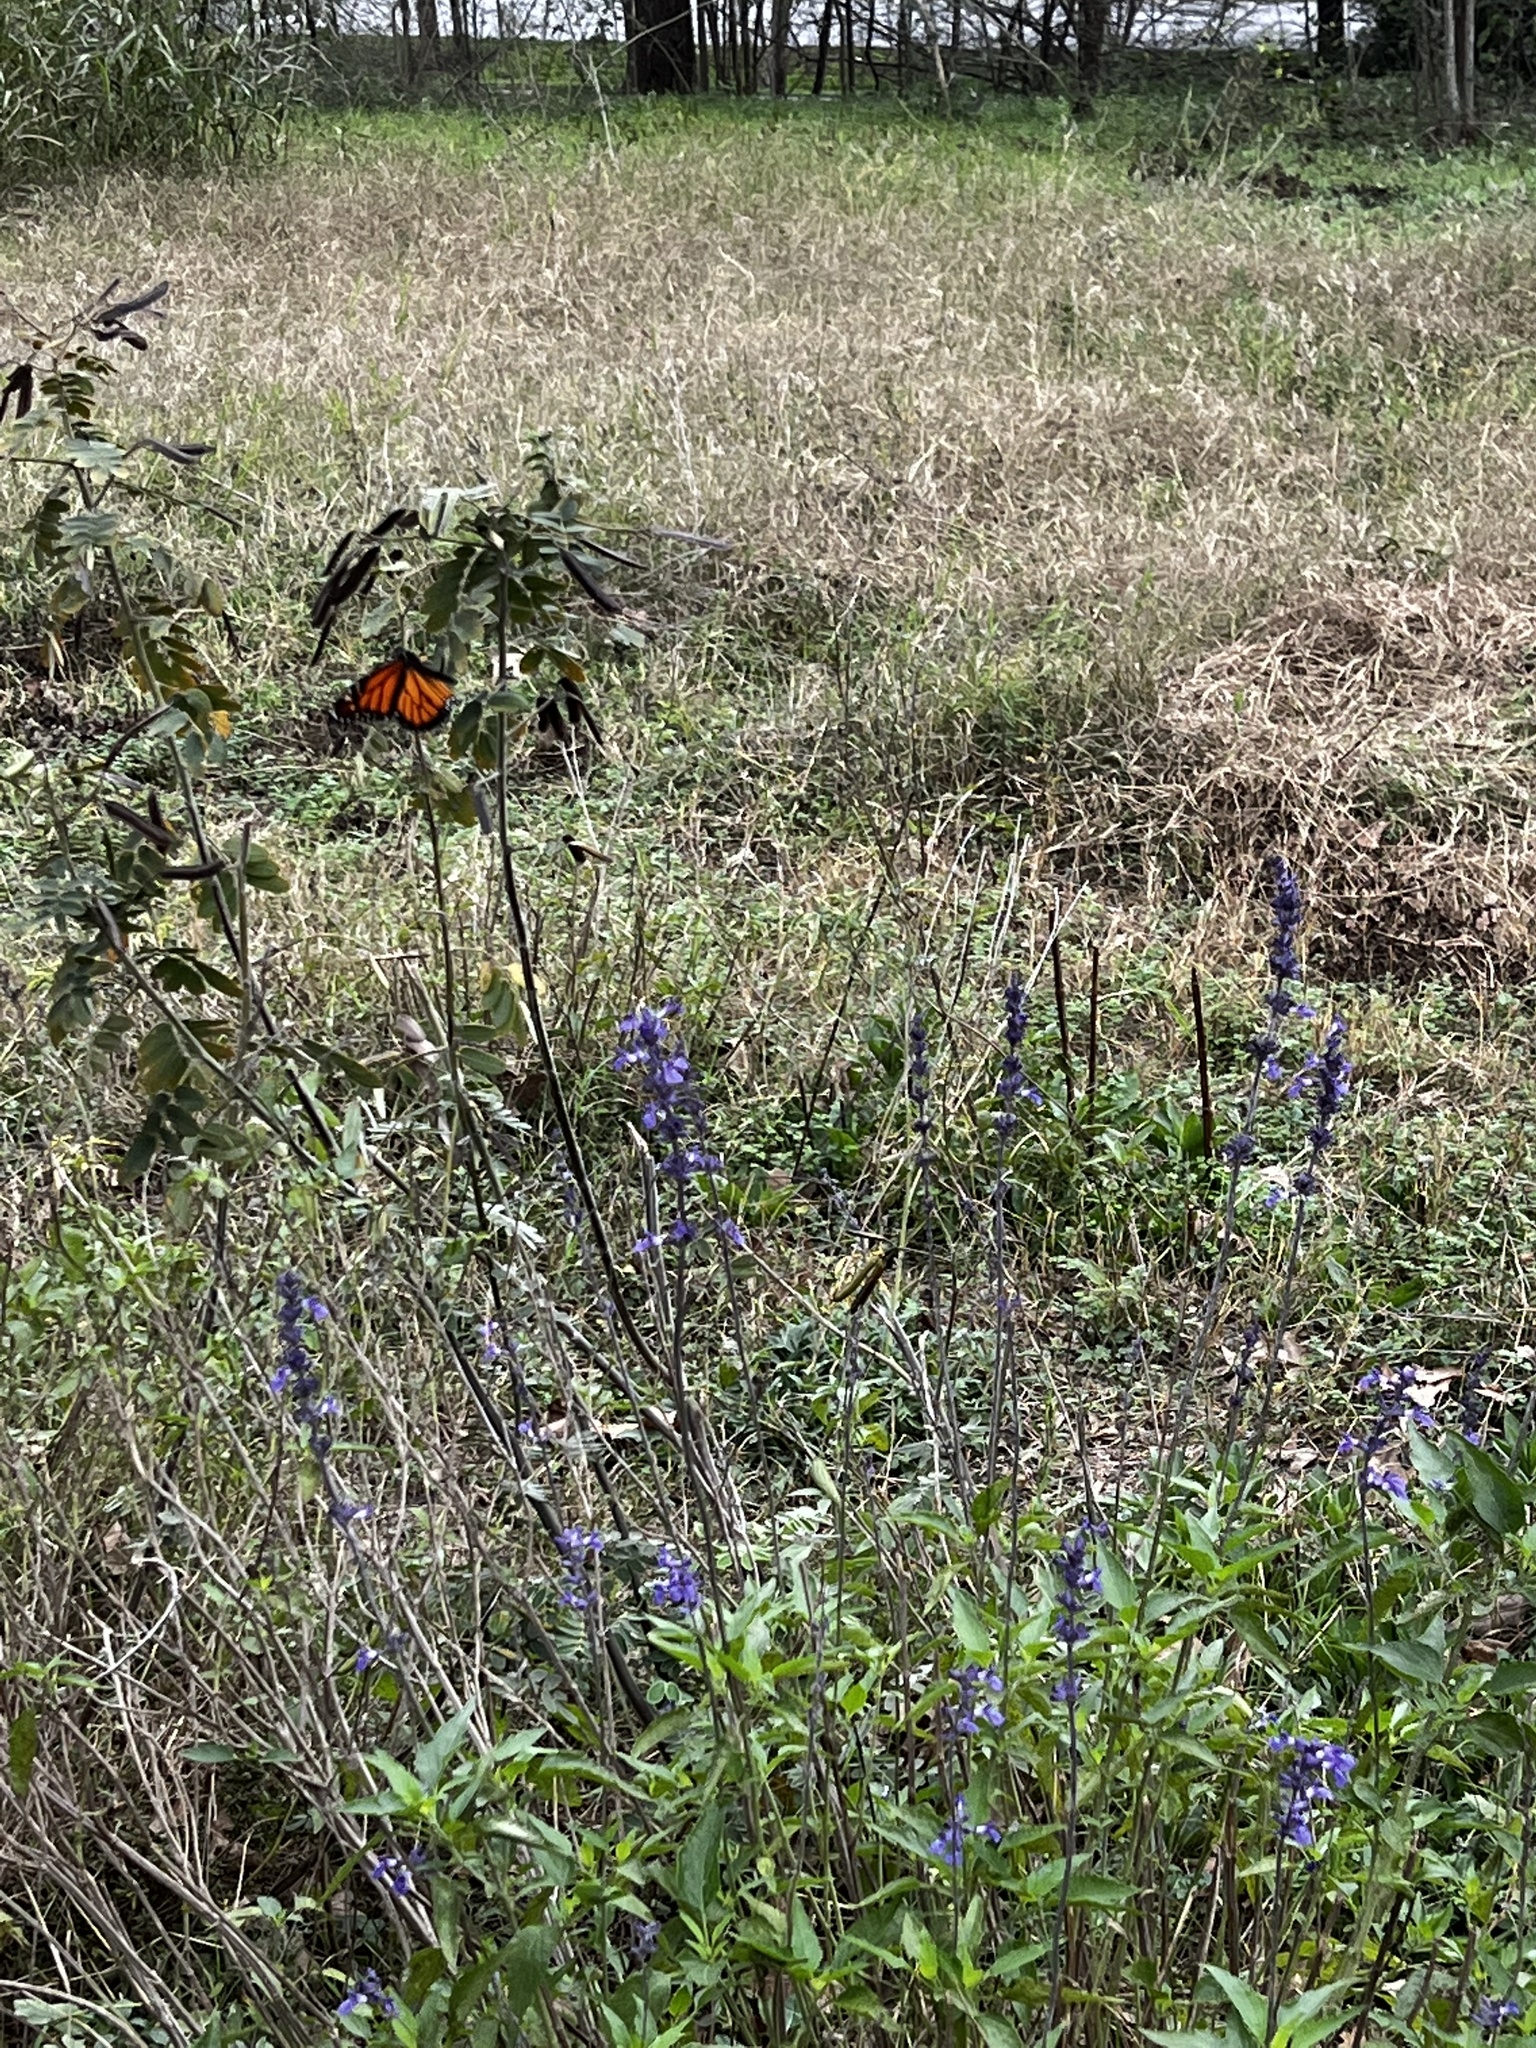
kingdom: Animalia
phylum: Arthropoda
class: Insecta
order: Lepidoptera
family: Nymphalidae
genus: Danaus
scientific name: Danaus plexippus
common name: Monarch
